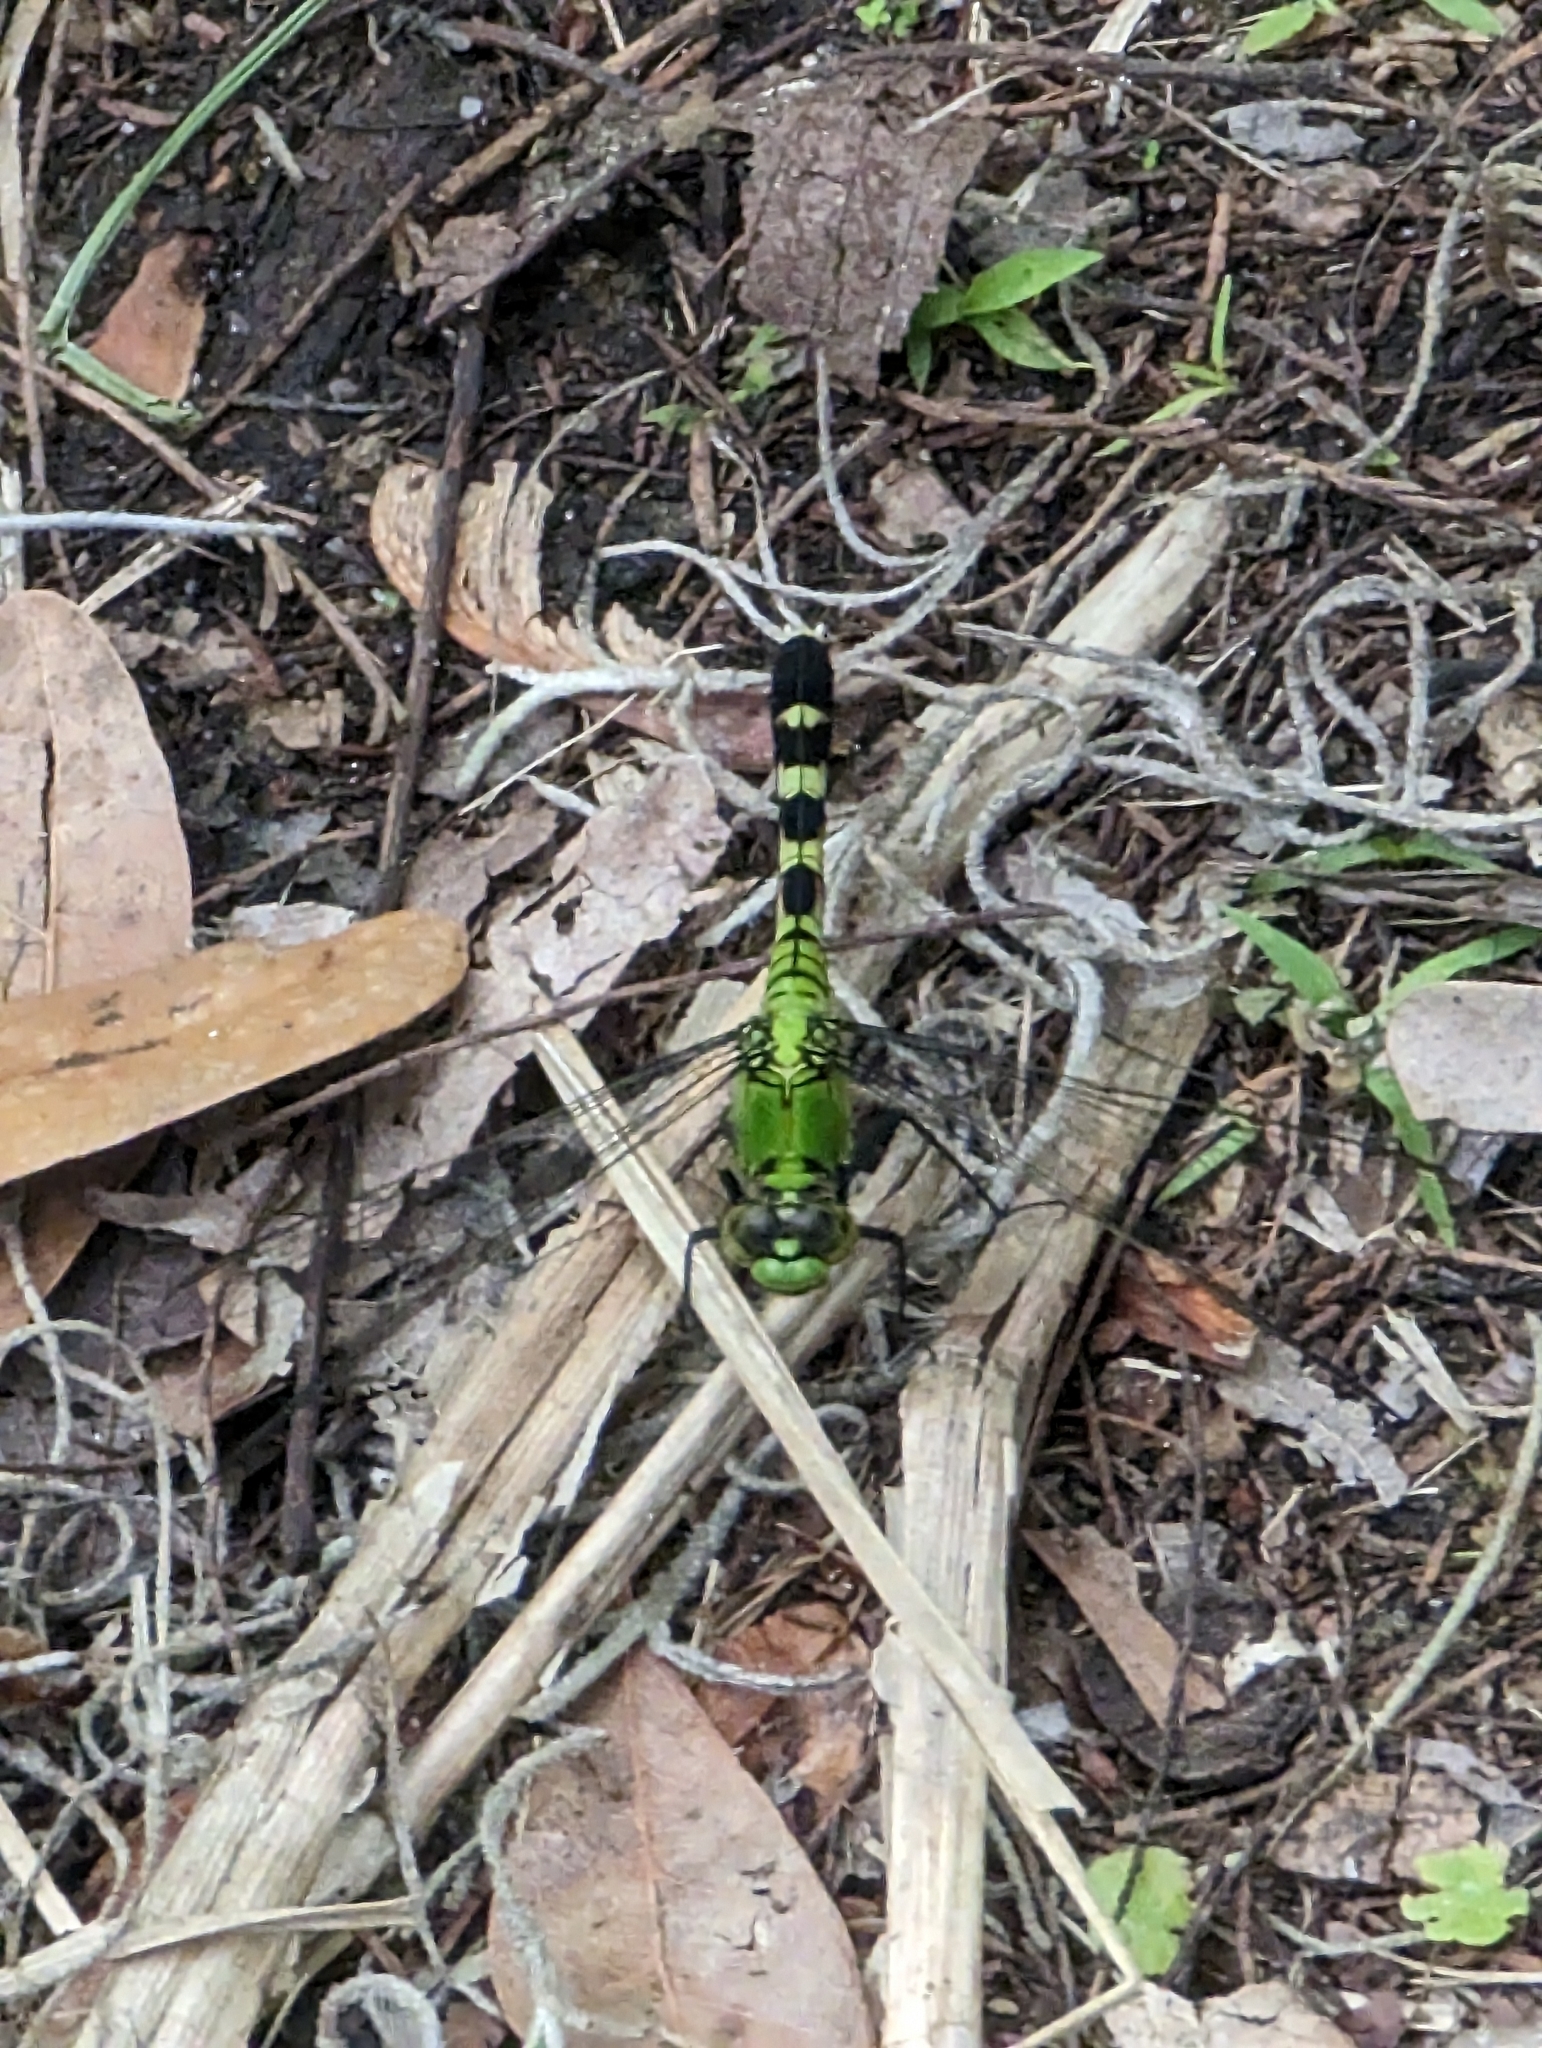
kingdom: Animalia
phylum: Arthropoda
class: Insecta
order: Odonata
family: Libellulidae
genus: Erythemis
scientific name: Erythemis simplicicollis
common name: Eastern pondhawk
